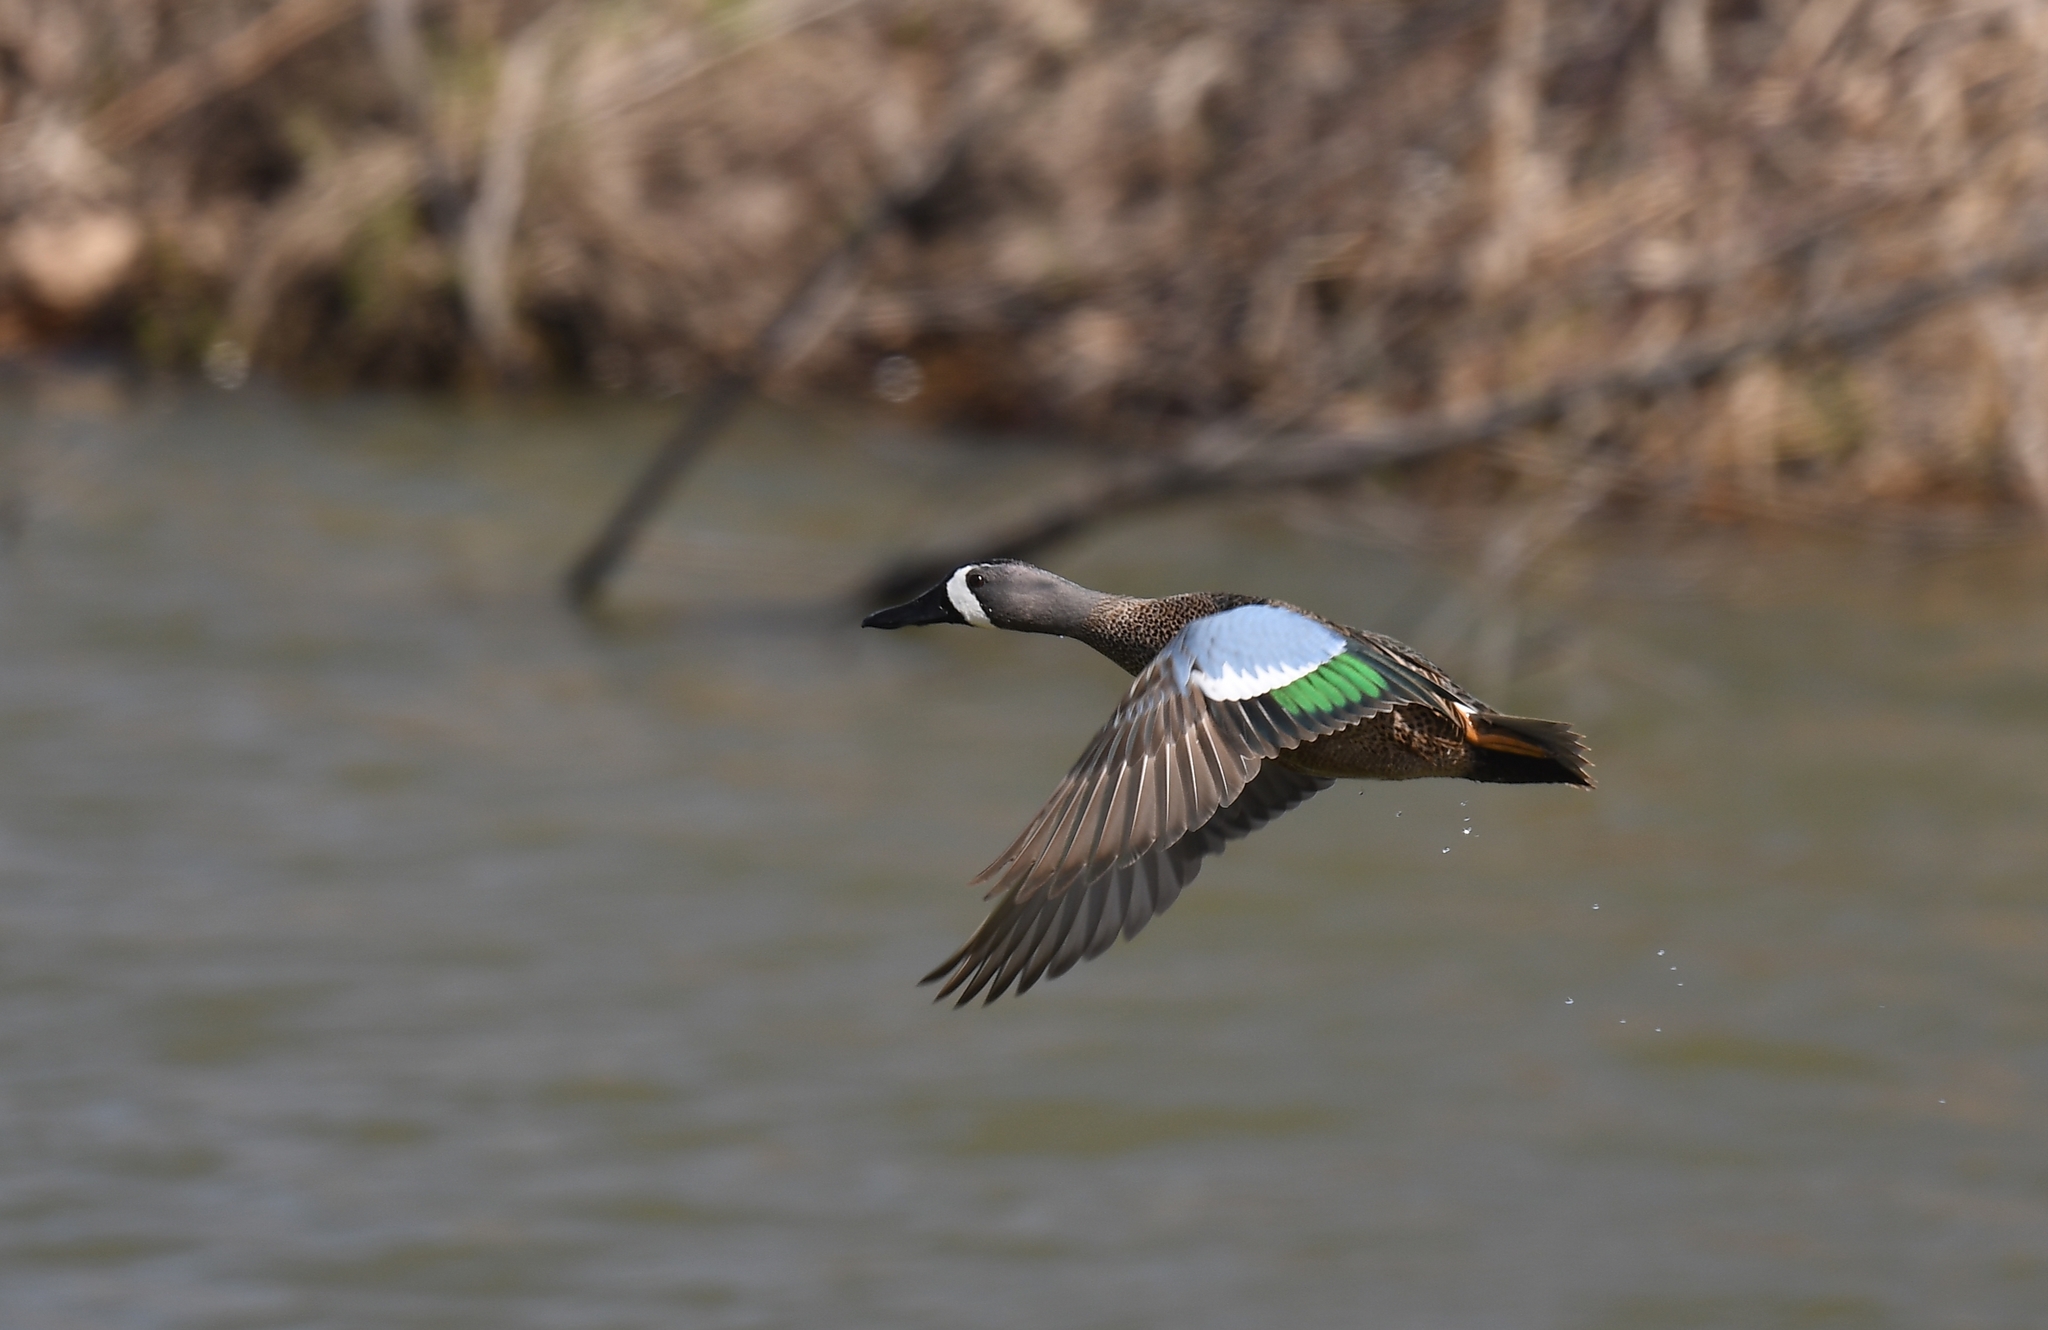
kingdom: Animalia
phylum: Chordata
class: Aves
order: Anseriformes
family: Anatidae
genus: Spatula
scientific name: Spatula discors
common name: Blue-winged teal
